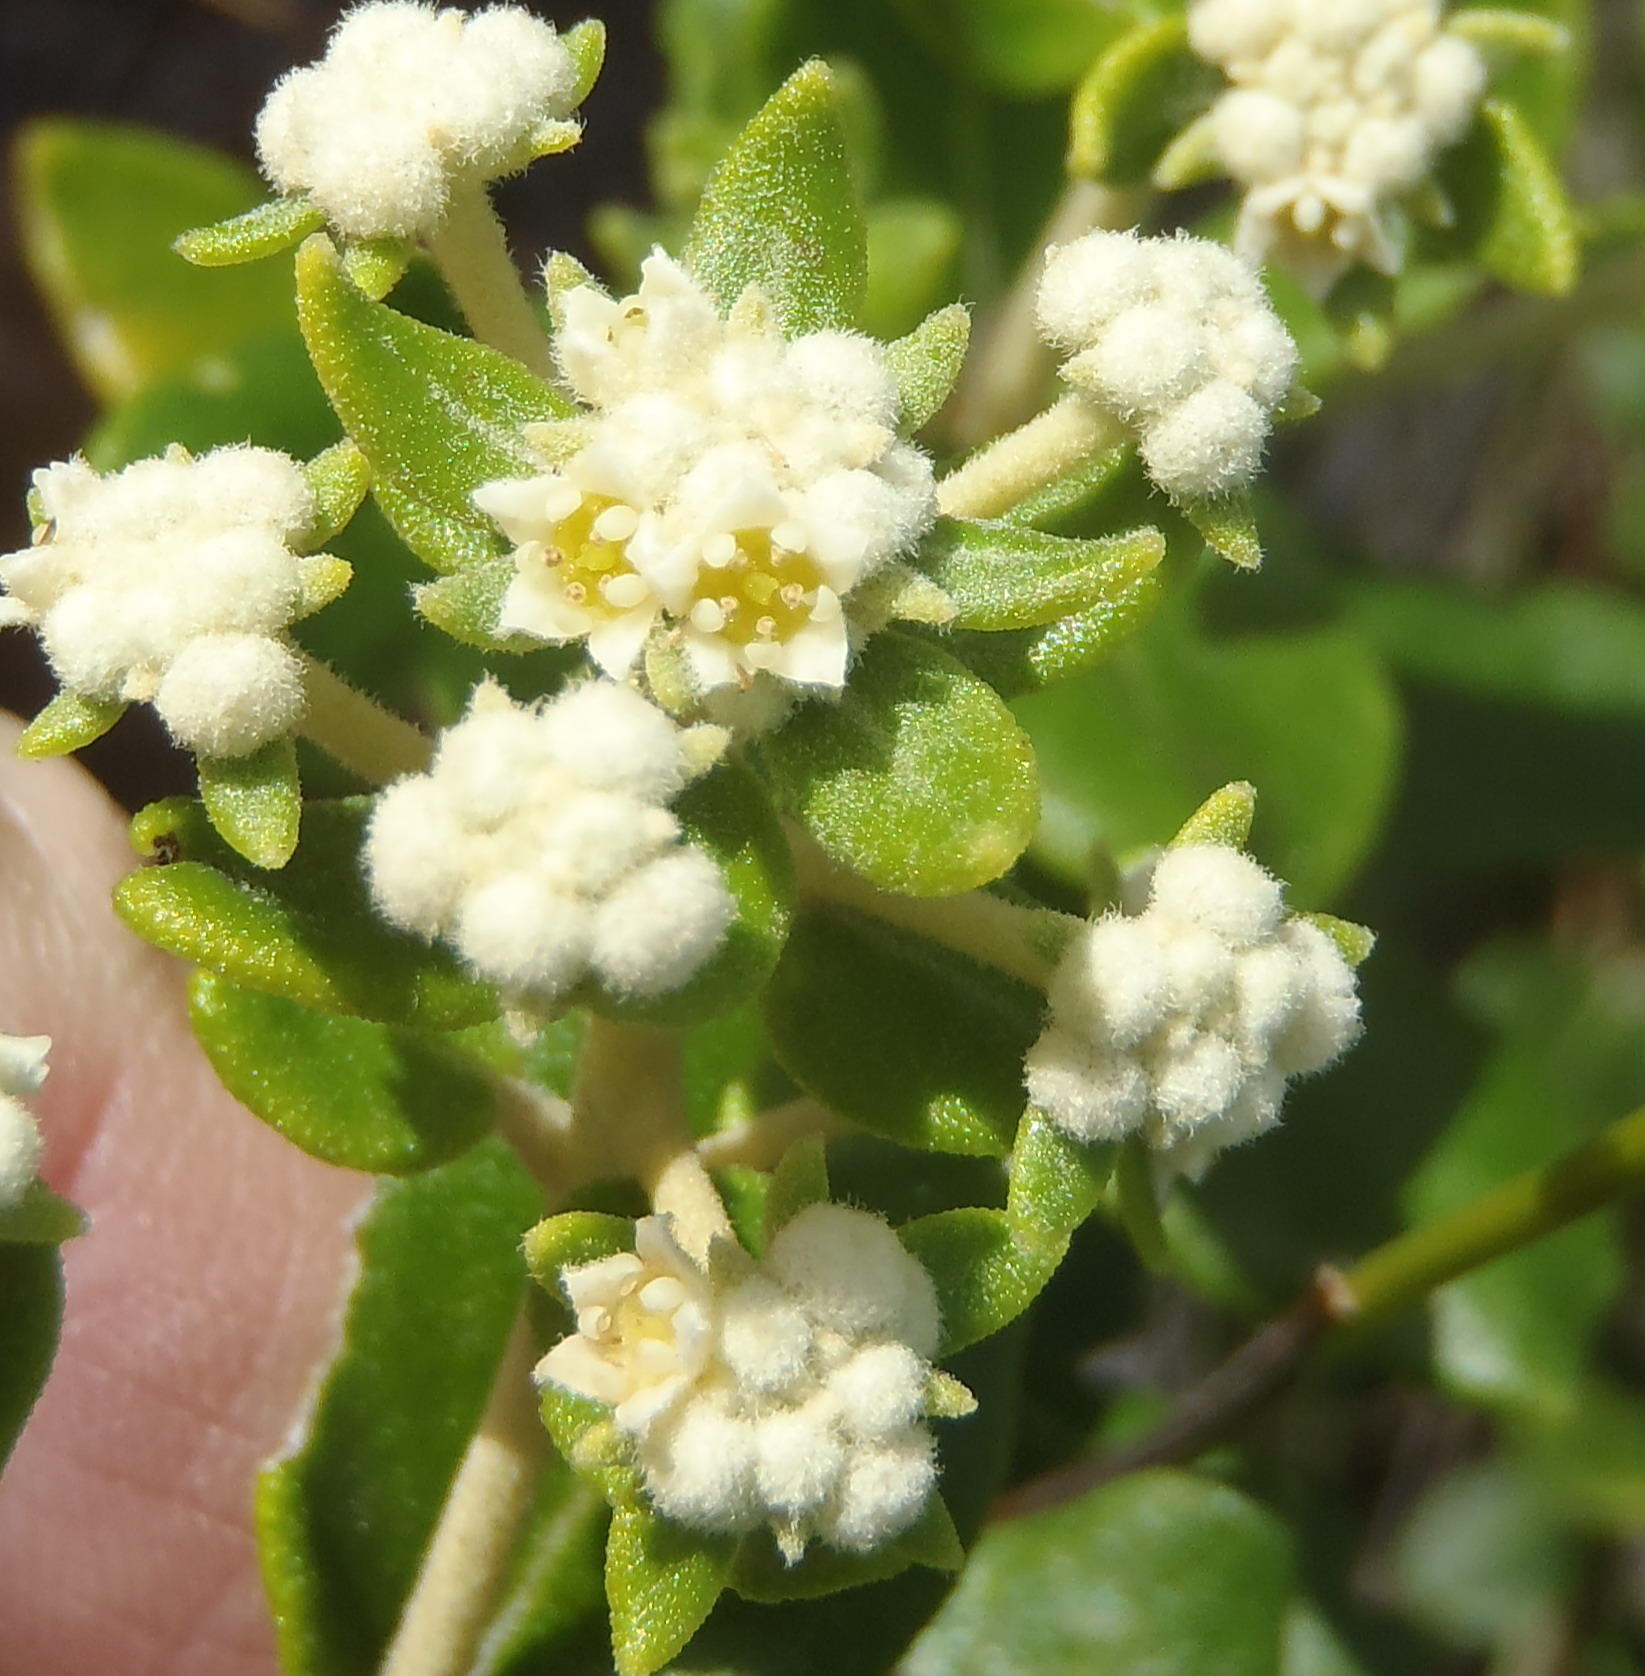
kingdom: Plantae
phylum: Tracheophyta
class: Magnoliopsida
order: Rosales
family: Rhamnaceae
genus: Phylica
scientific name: Phylica buxifolia
